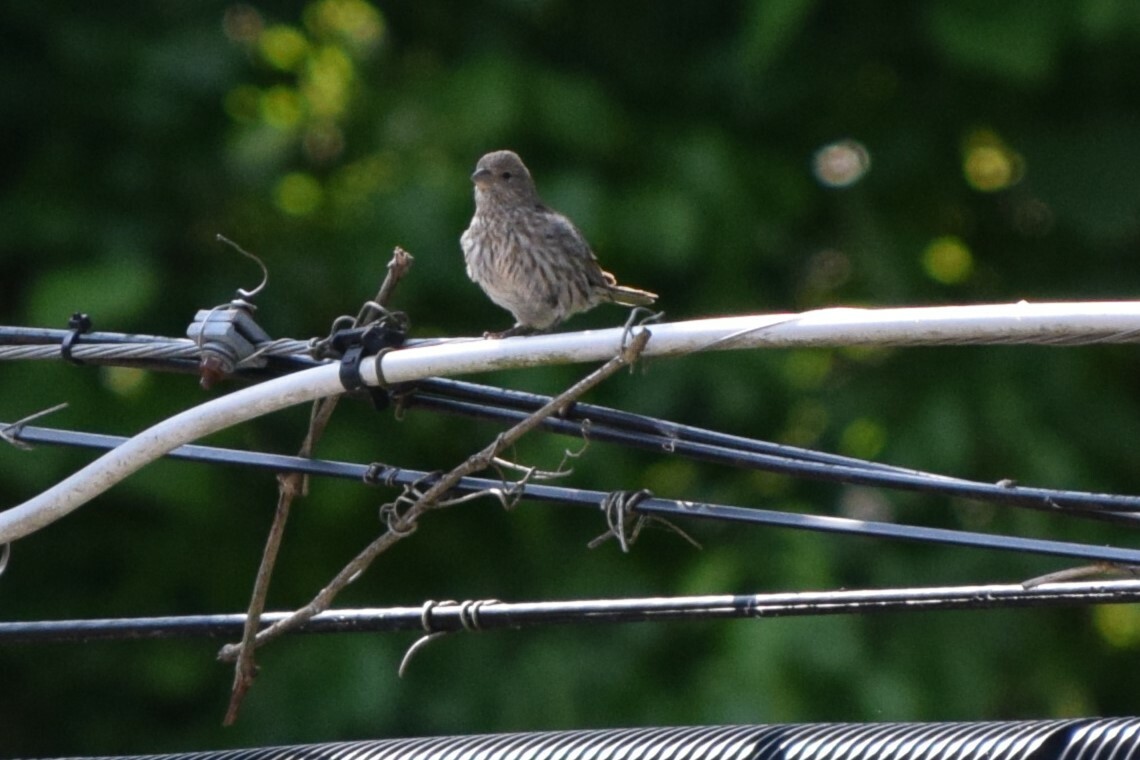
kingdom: Animalia
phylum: Chordata
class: Aves
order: Passeriformes
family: Fringillidae
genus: Haemorhous
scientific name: Haemorhous mexicanus
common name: House finch
